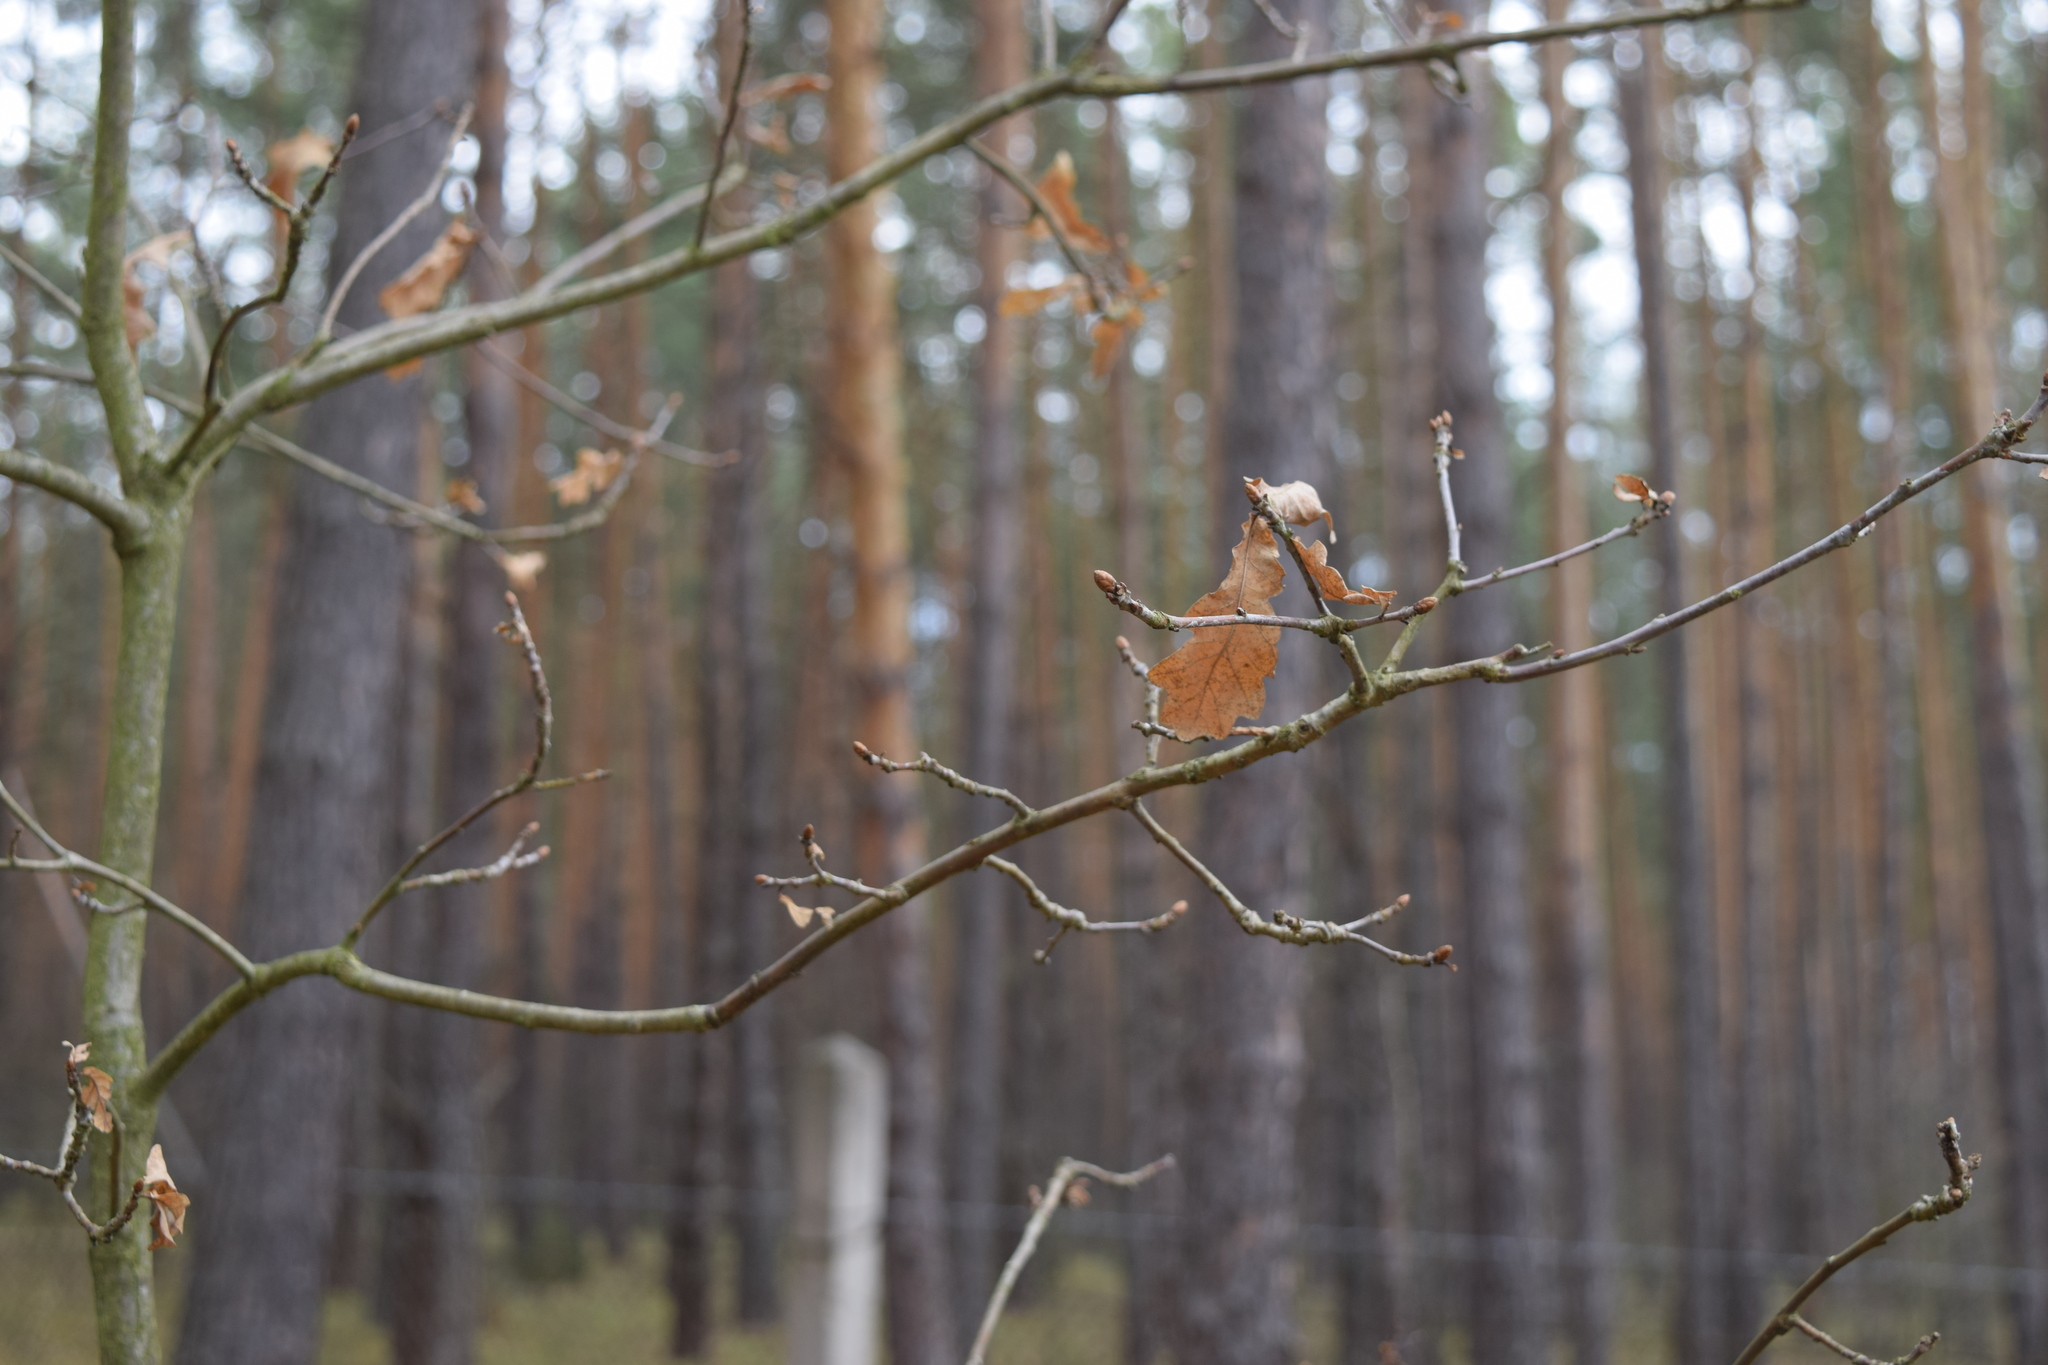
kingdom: Plantae
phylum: Tracheophyta
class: Magnoliopsida
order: Fagales
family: Fagaceae
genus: Quercus
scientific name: Quercus robur
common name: Pedunculate oak
